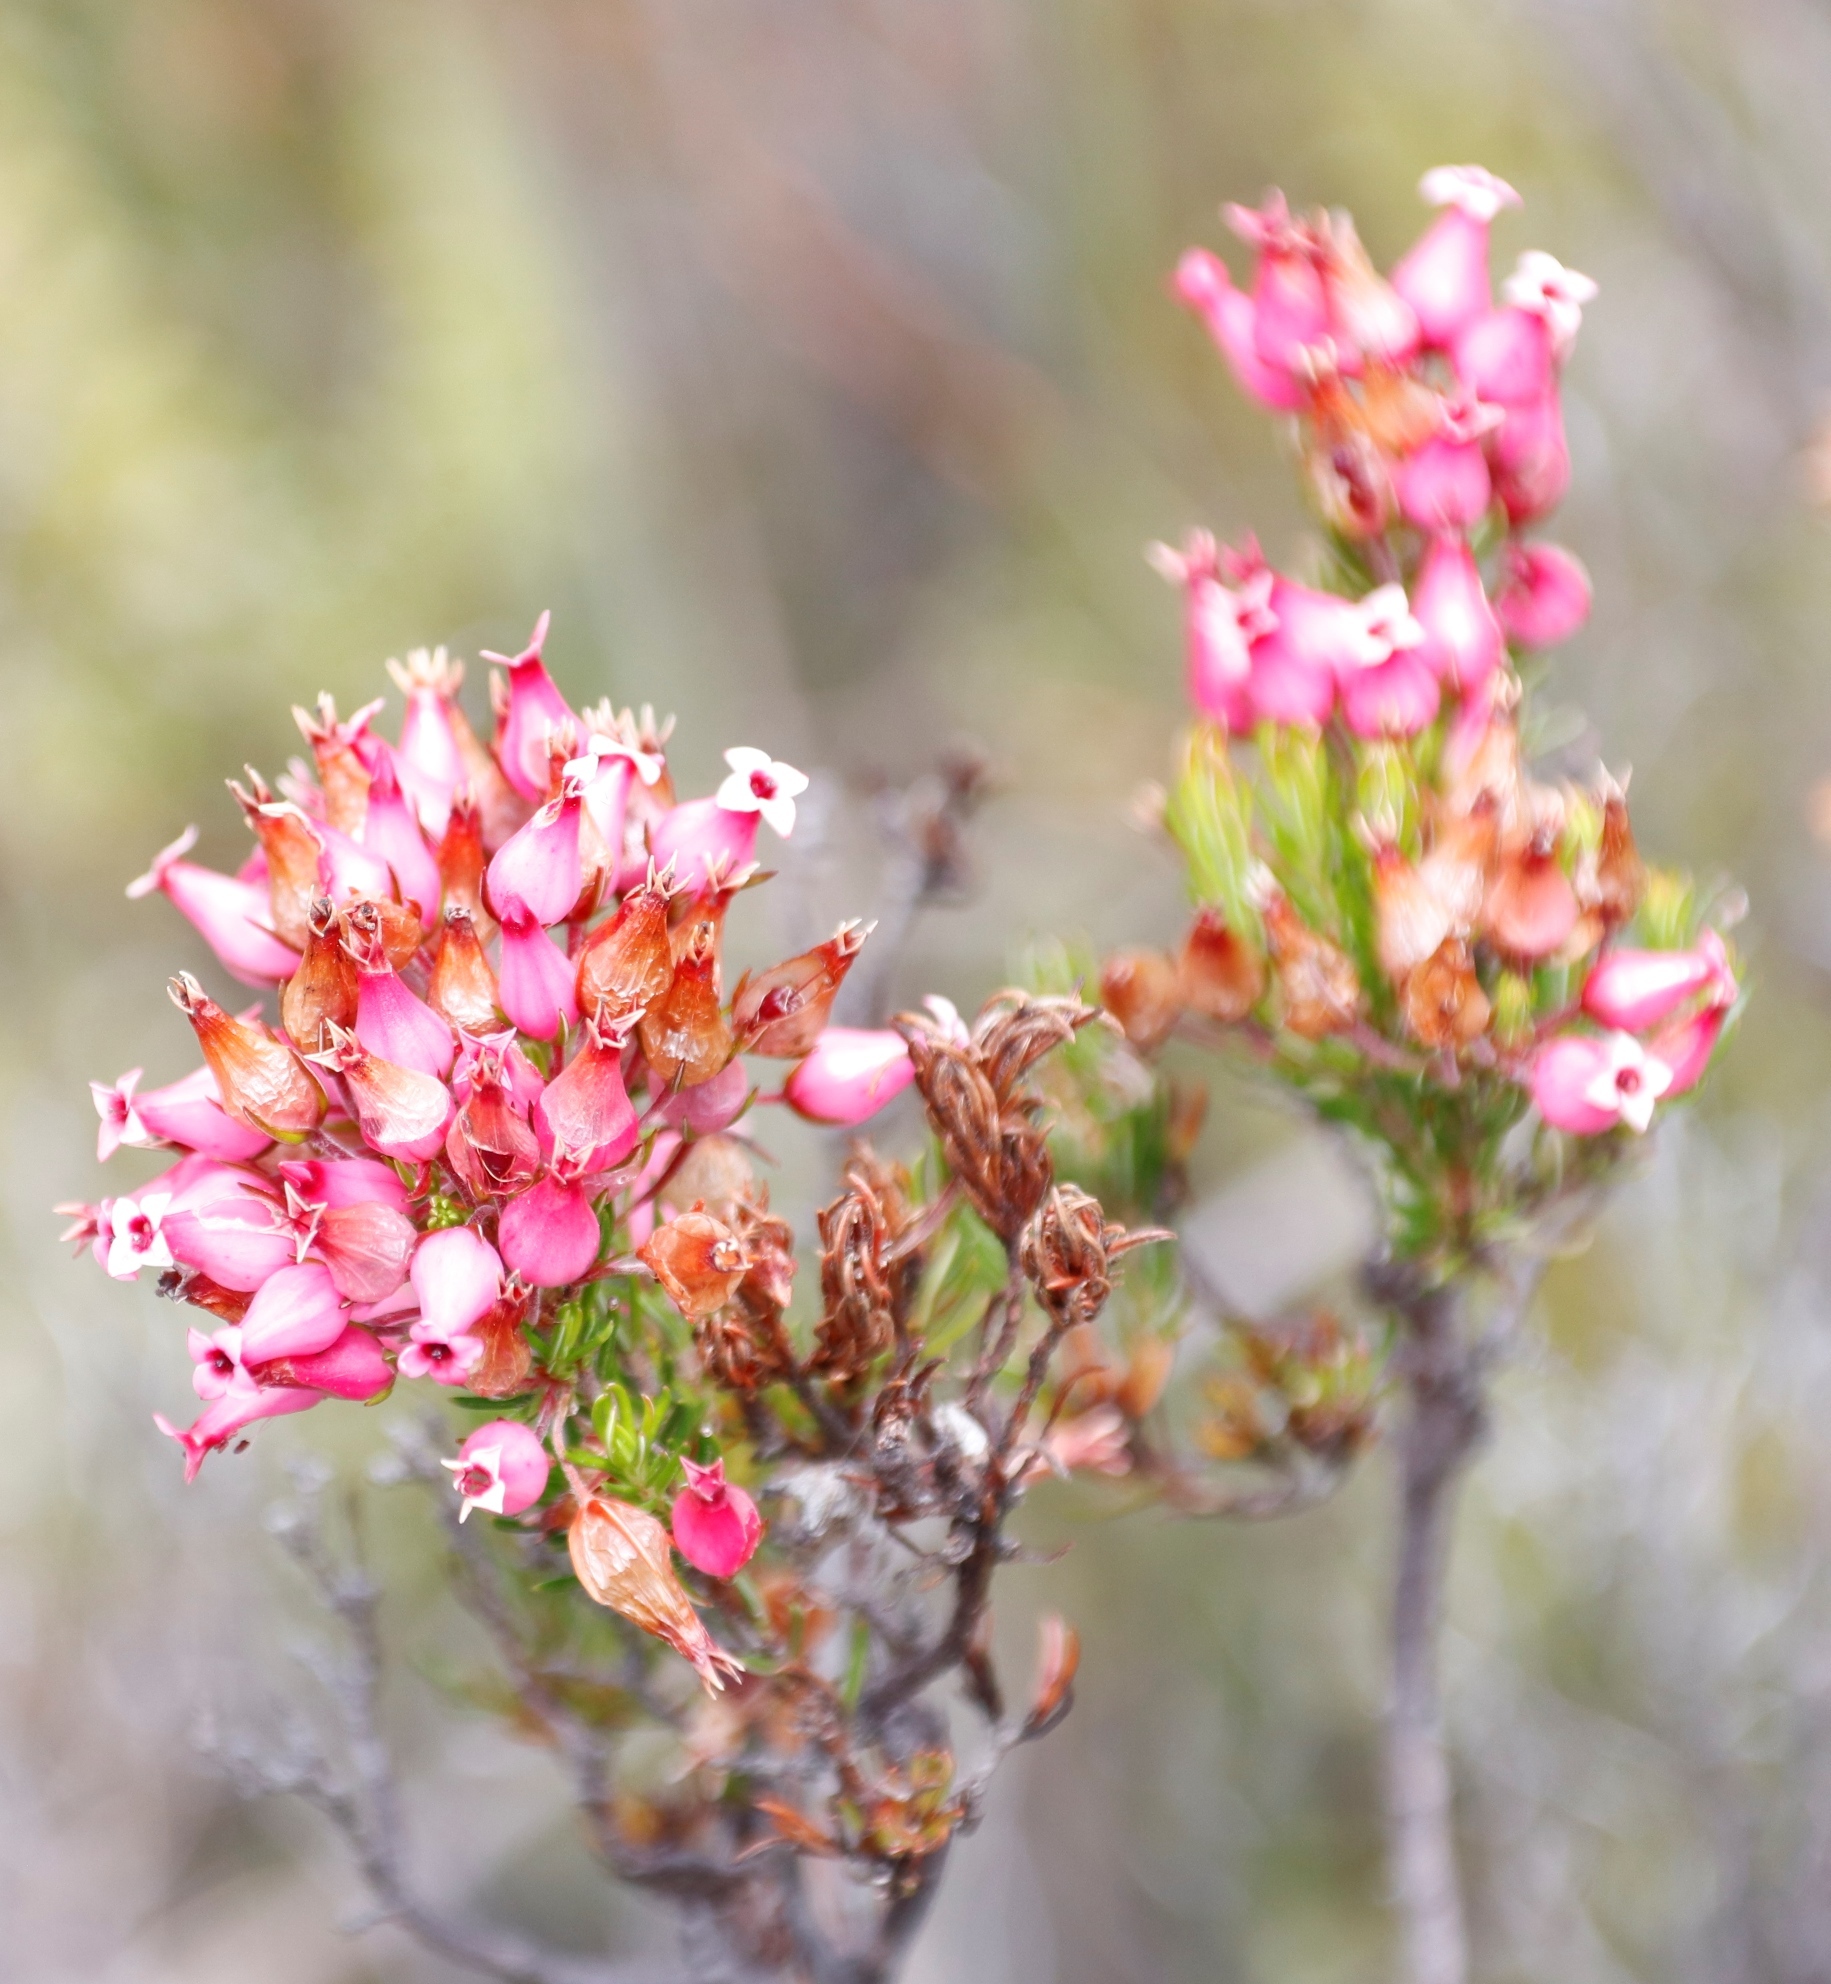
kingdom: Plantae
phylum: Tracheophyta
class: Magnoliopsida
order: Ericales
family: Ericaceae
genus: Erica
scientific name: Erica ventricosa
